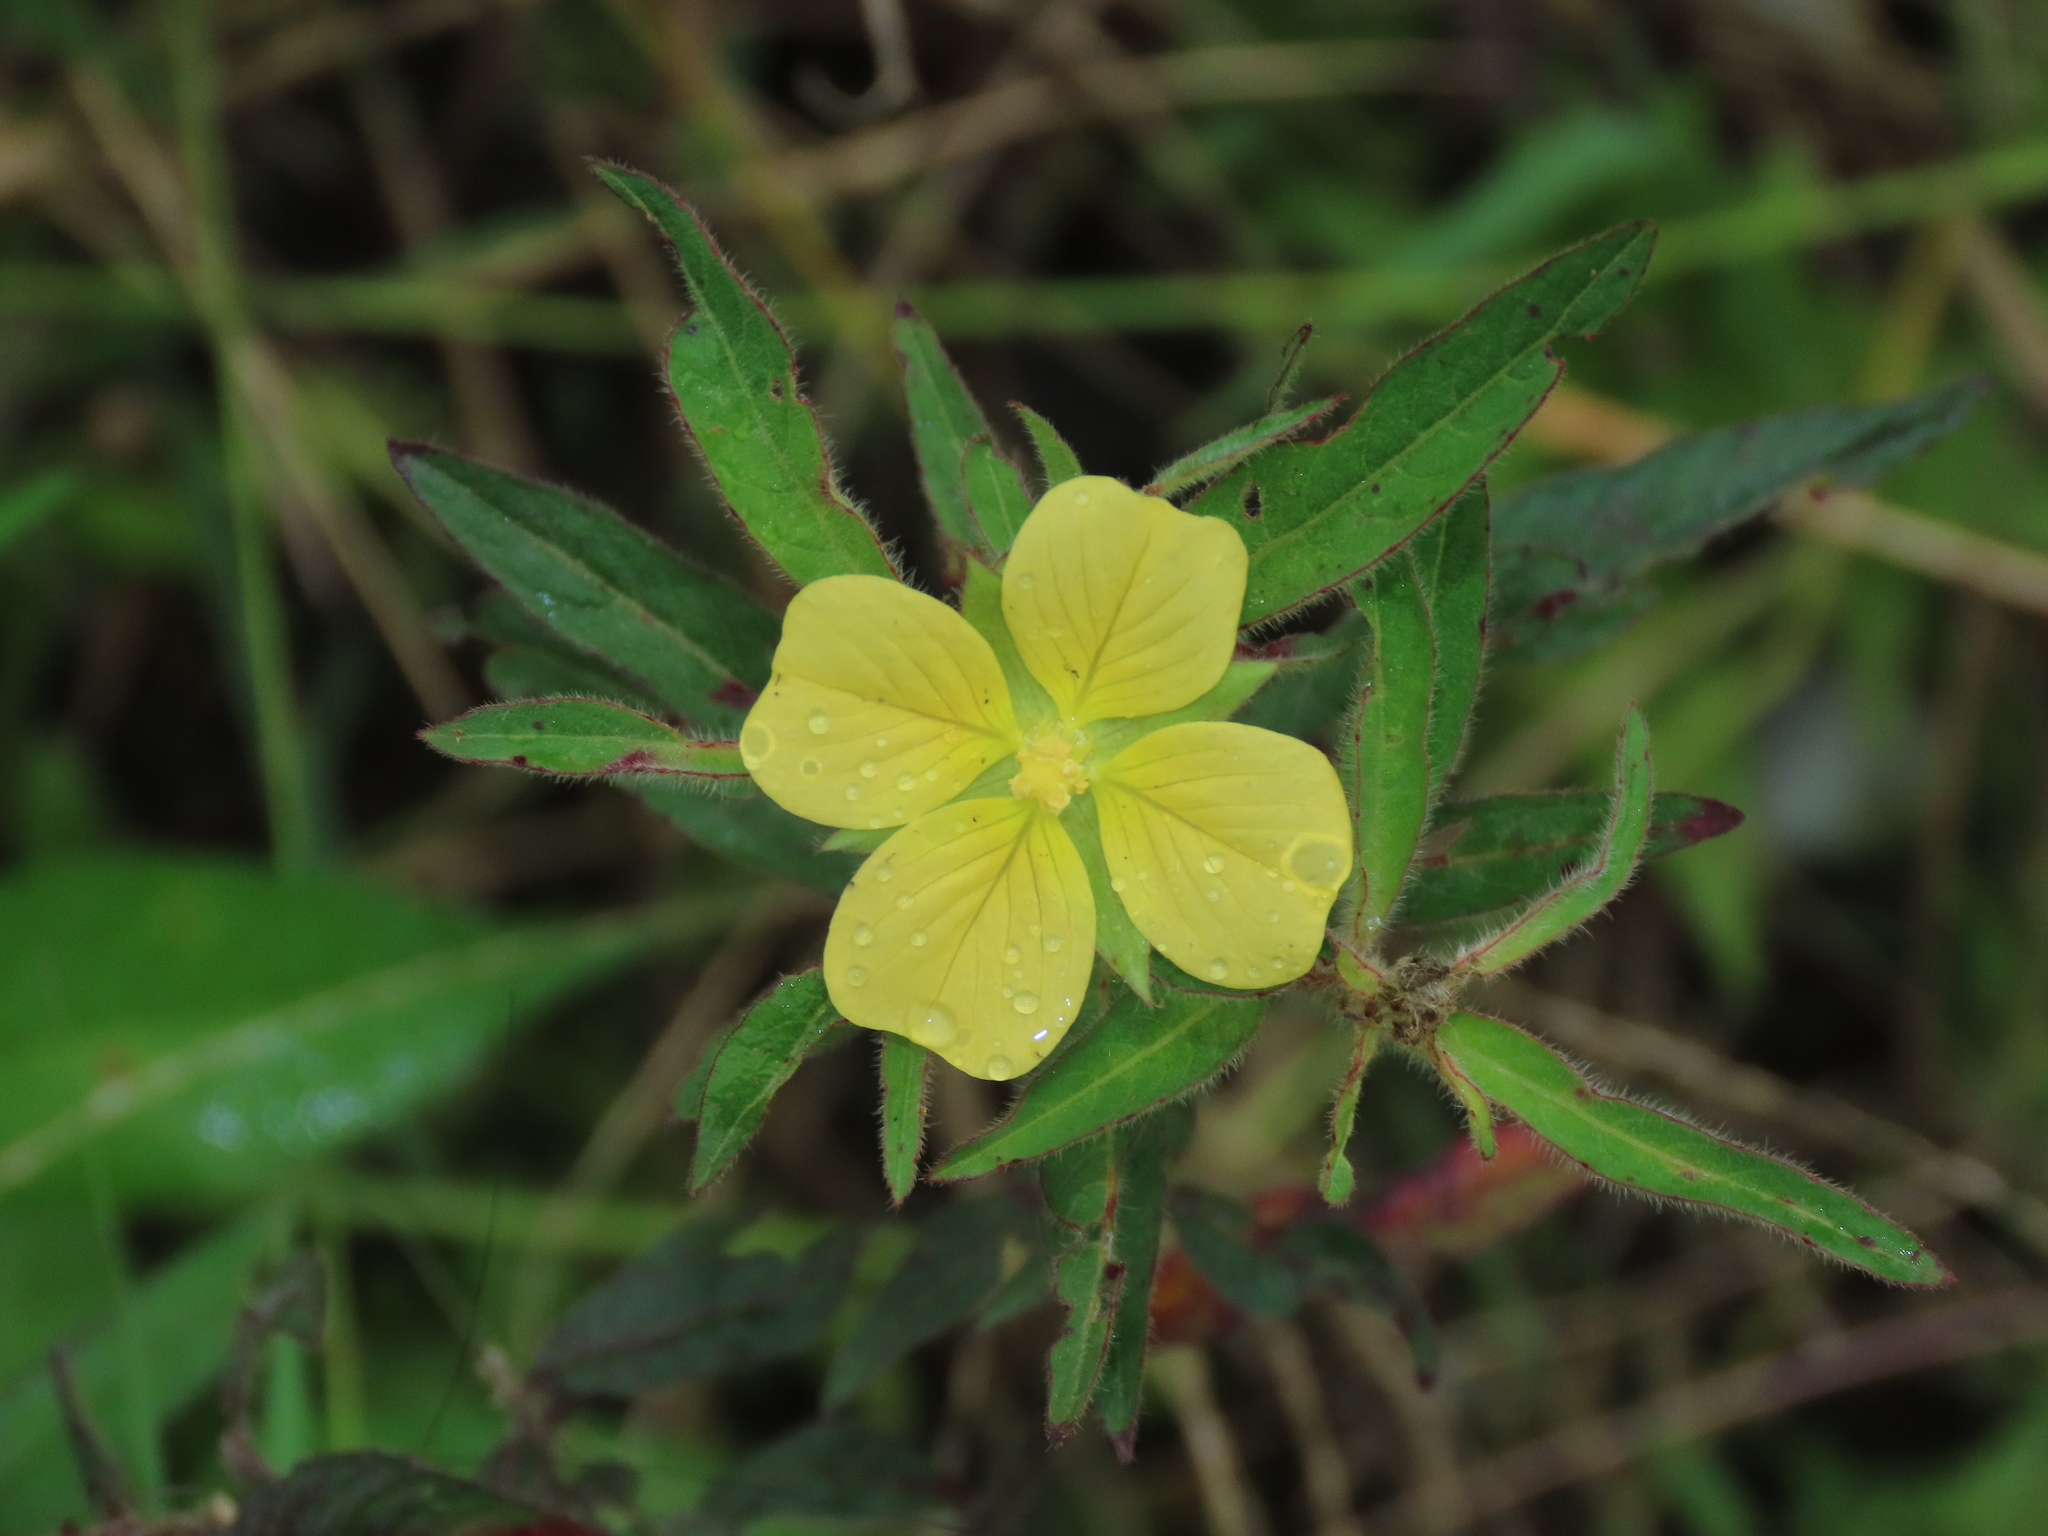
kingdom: Plantae
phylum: Tracheophyta
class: Magnoliopsida
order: Myrtales
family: Onagraceae
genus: Ludwigia
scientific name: Ludwigia octovalvis
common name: Water-primrose
